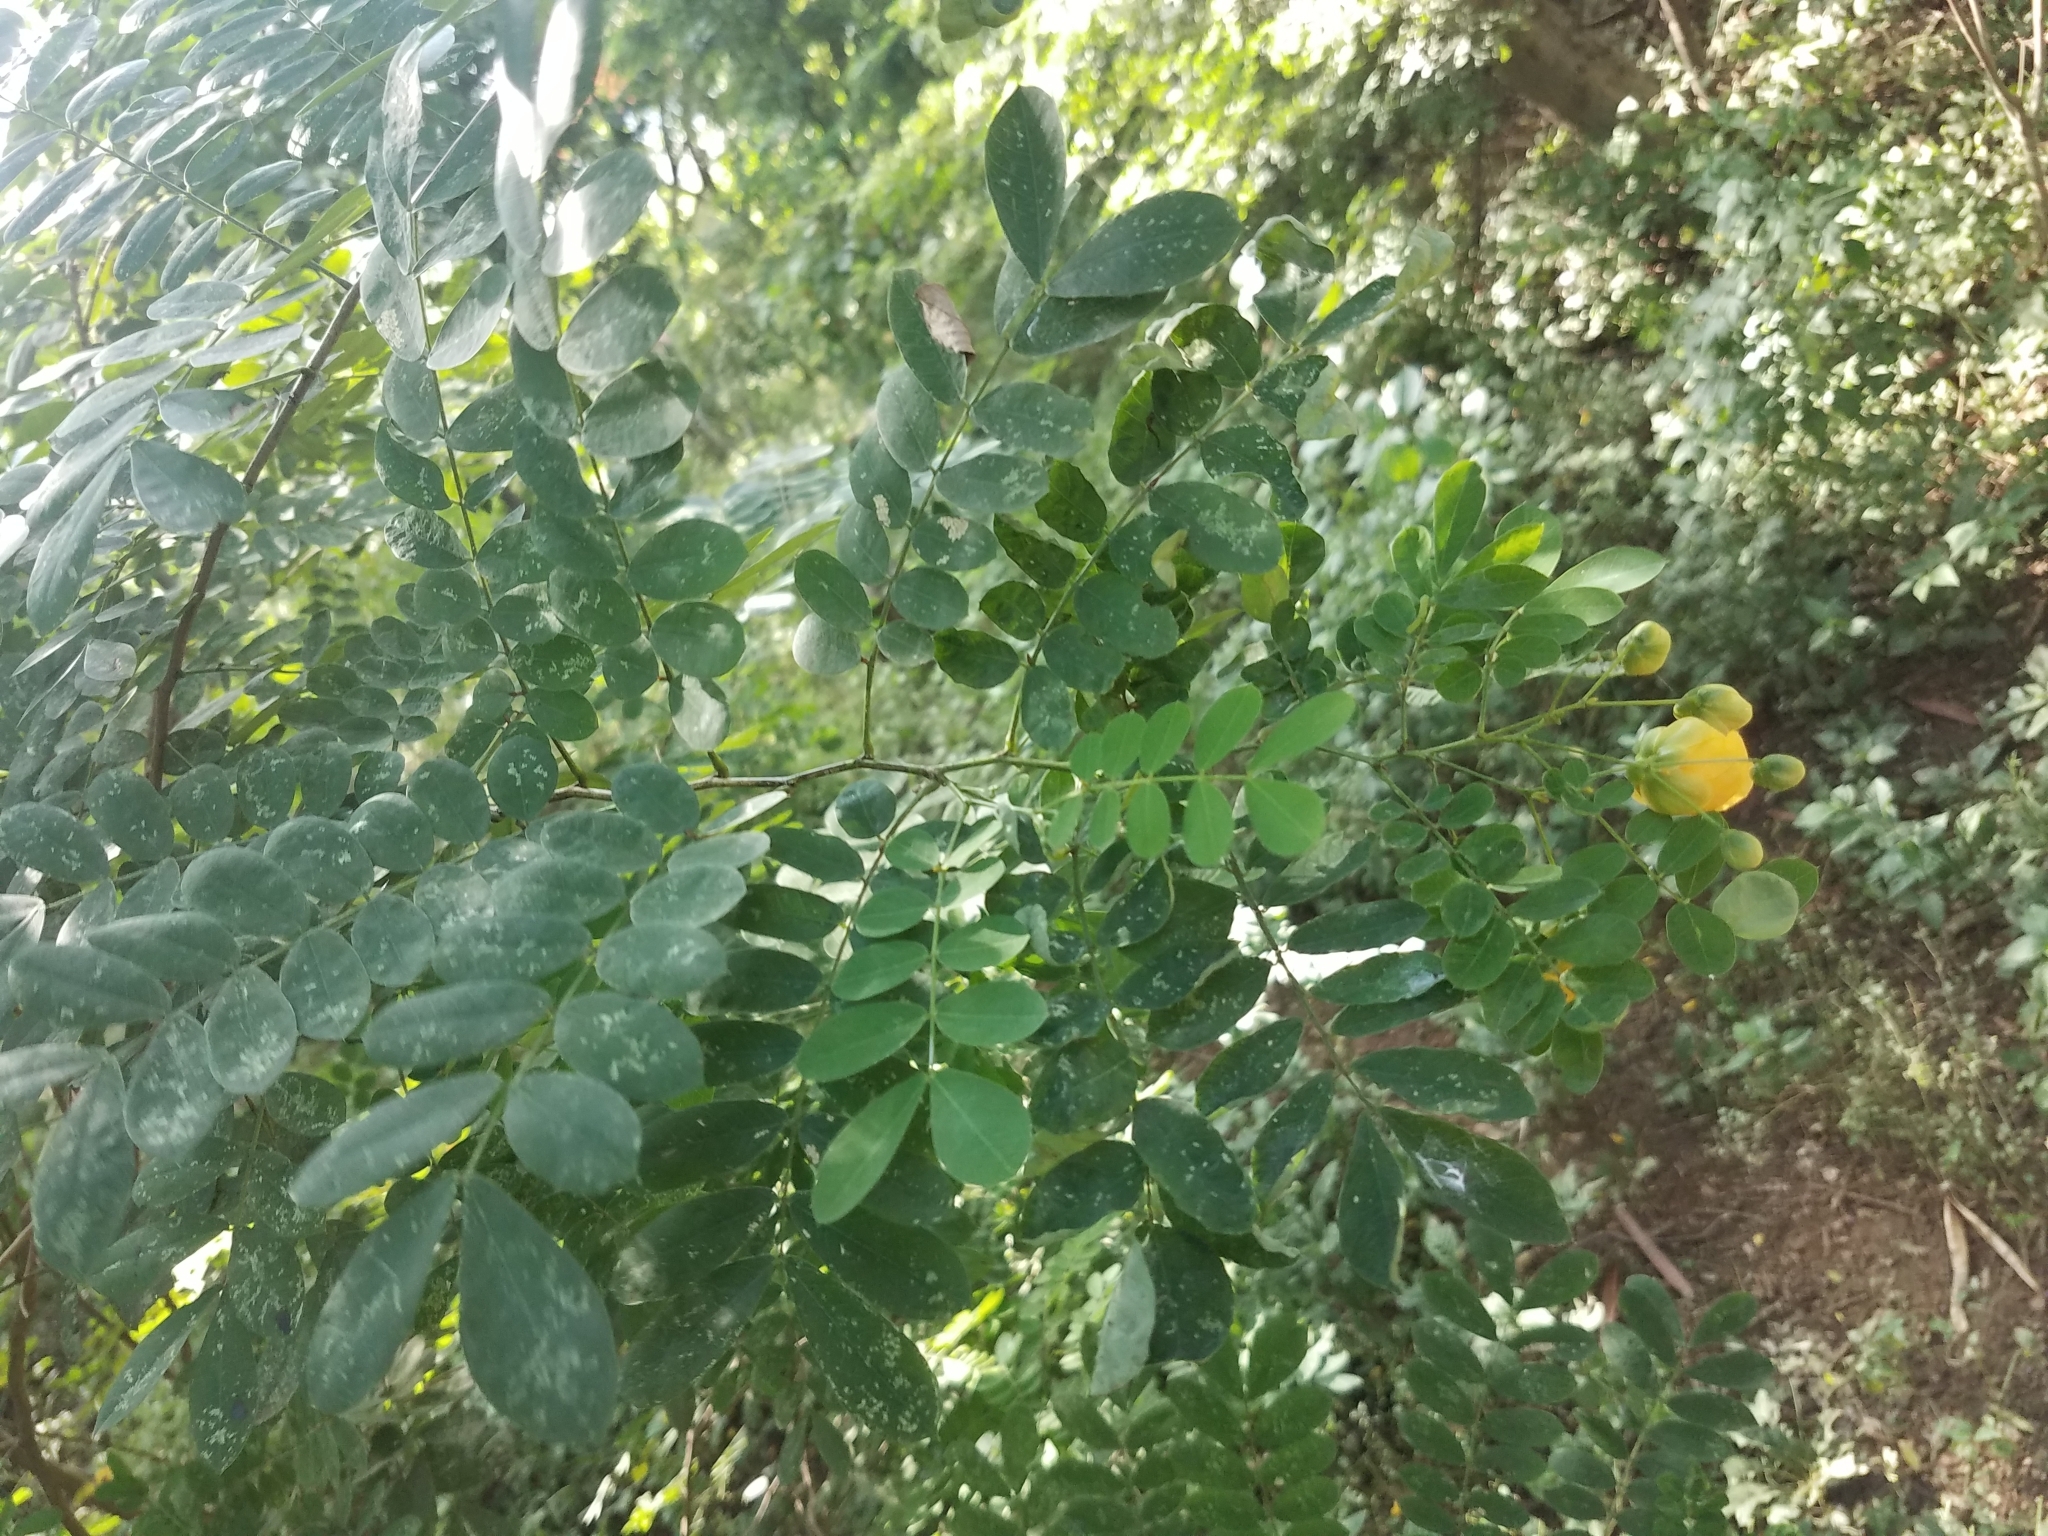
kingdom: Plantae
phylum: Tracheophyta
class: Magnoliopsida
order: Fabales
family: Fabaceae
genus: Senna
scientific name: Senna skinneri
